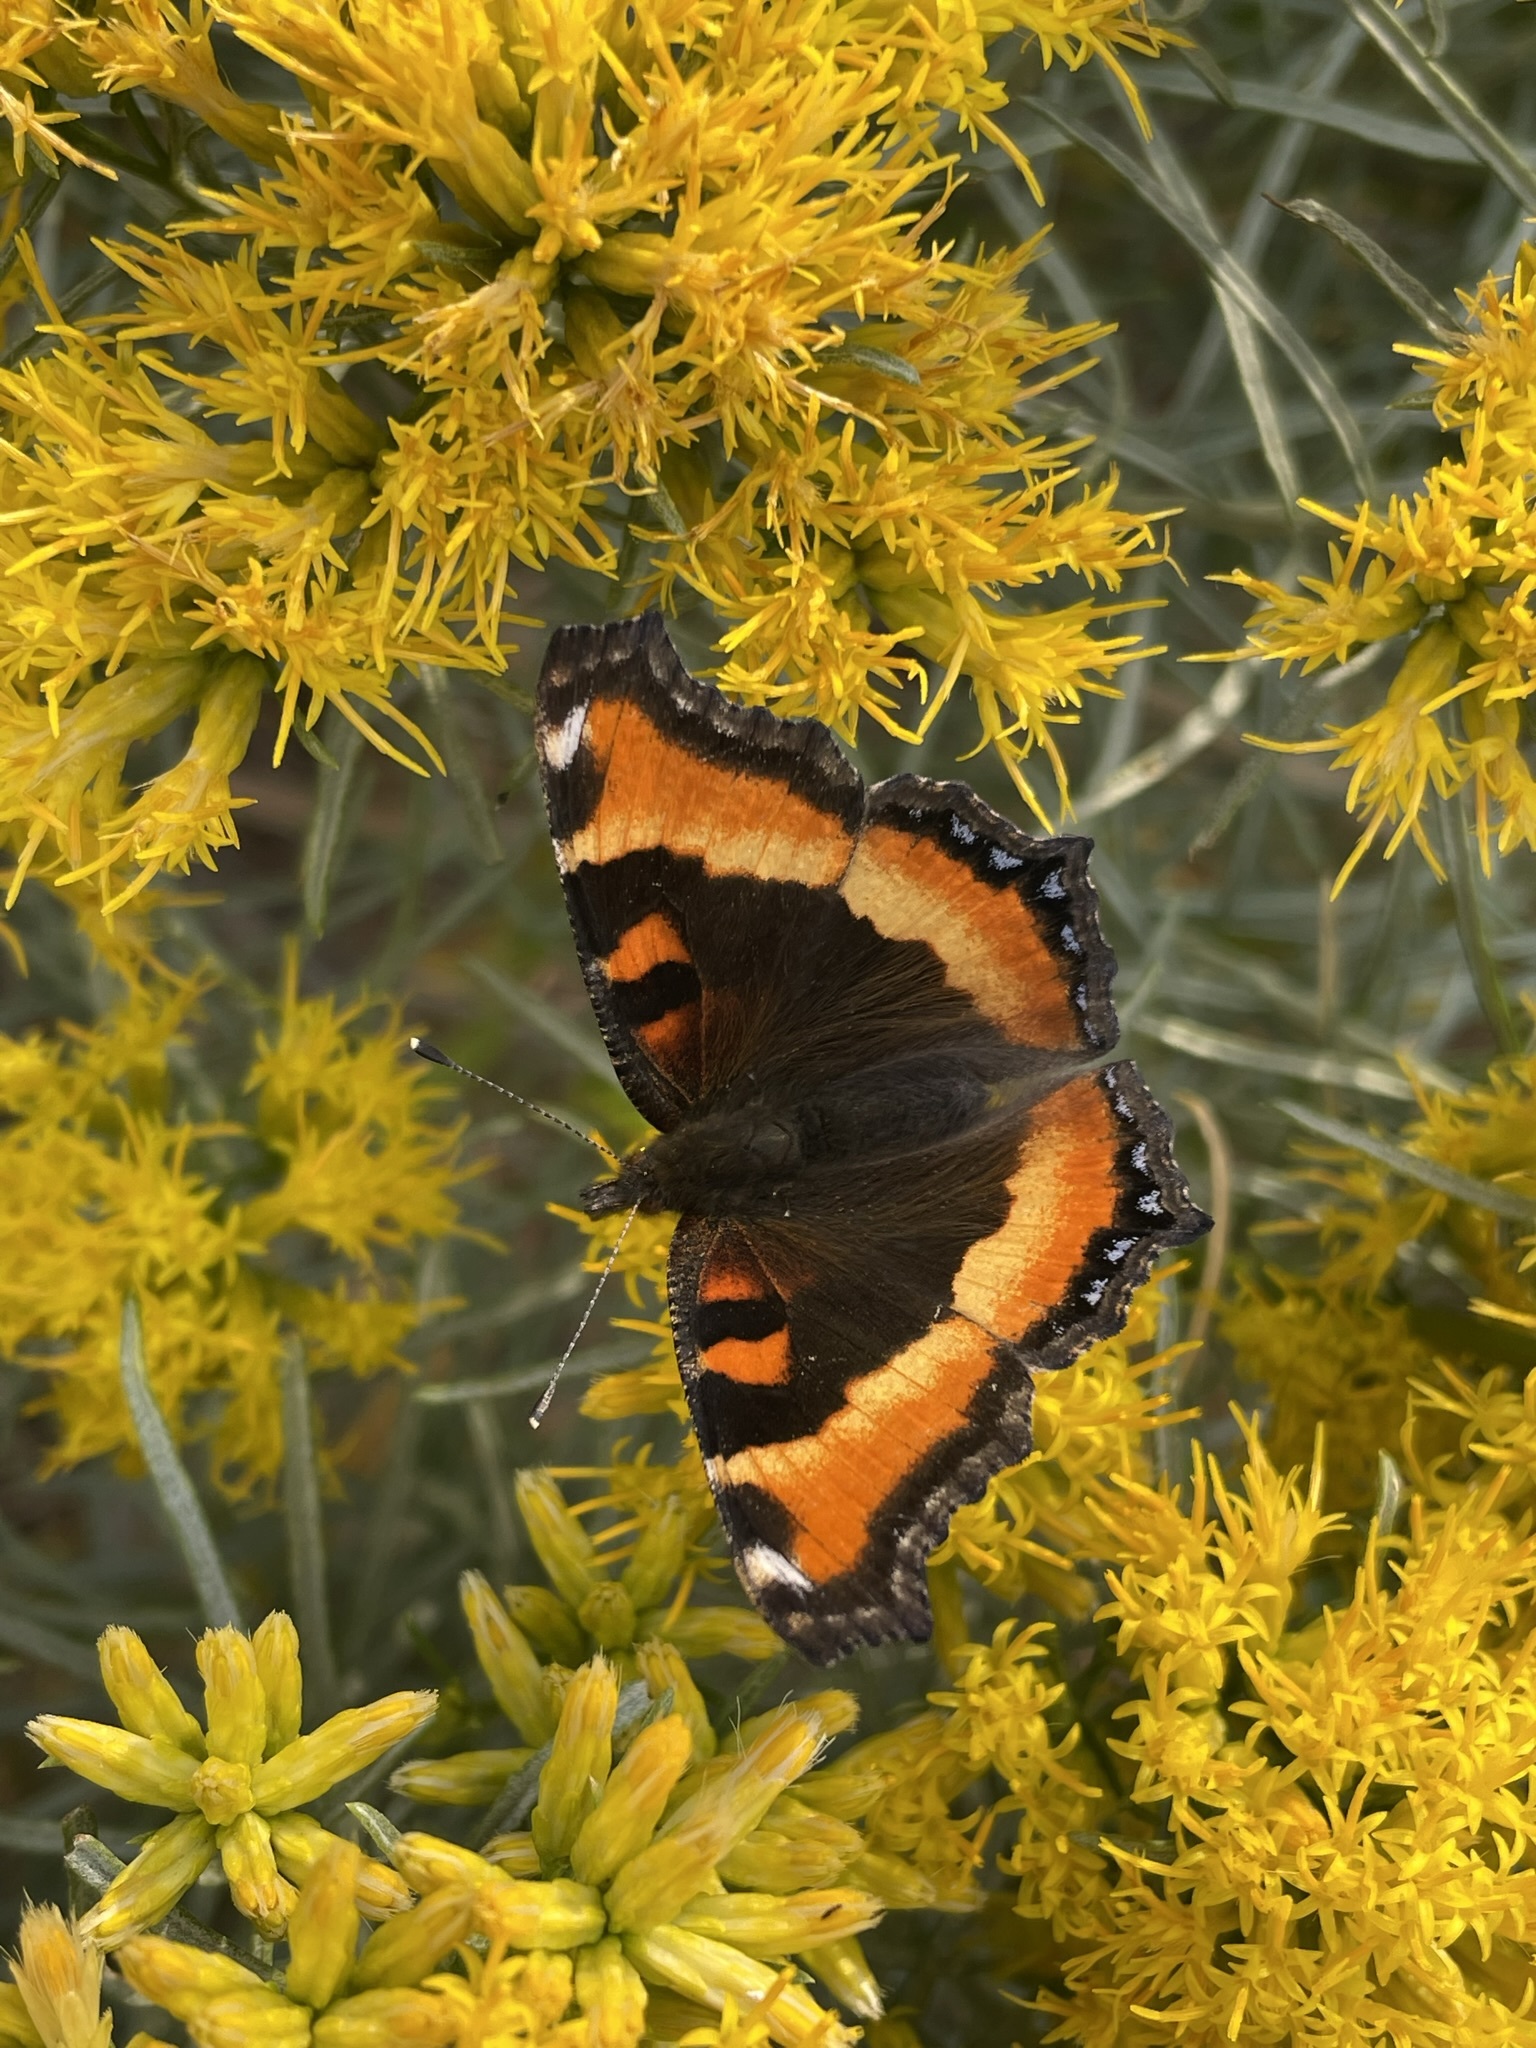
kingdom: Animalia
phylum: Arthropoda
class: Insecta
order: Lepidoptera
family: Nymphalidae
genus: Aglais
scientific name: Aglais milberti
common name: Milbert's tortoiseshell
